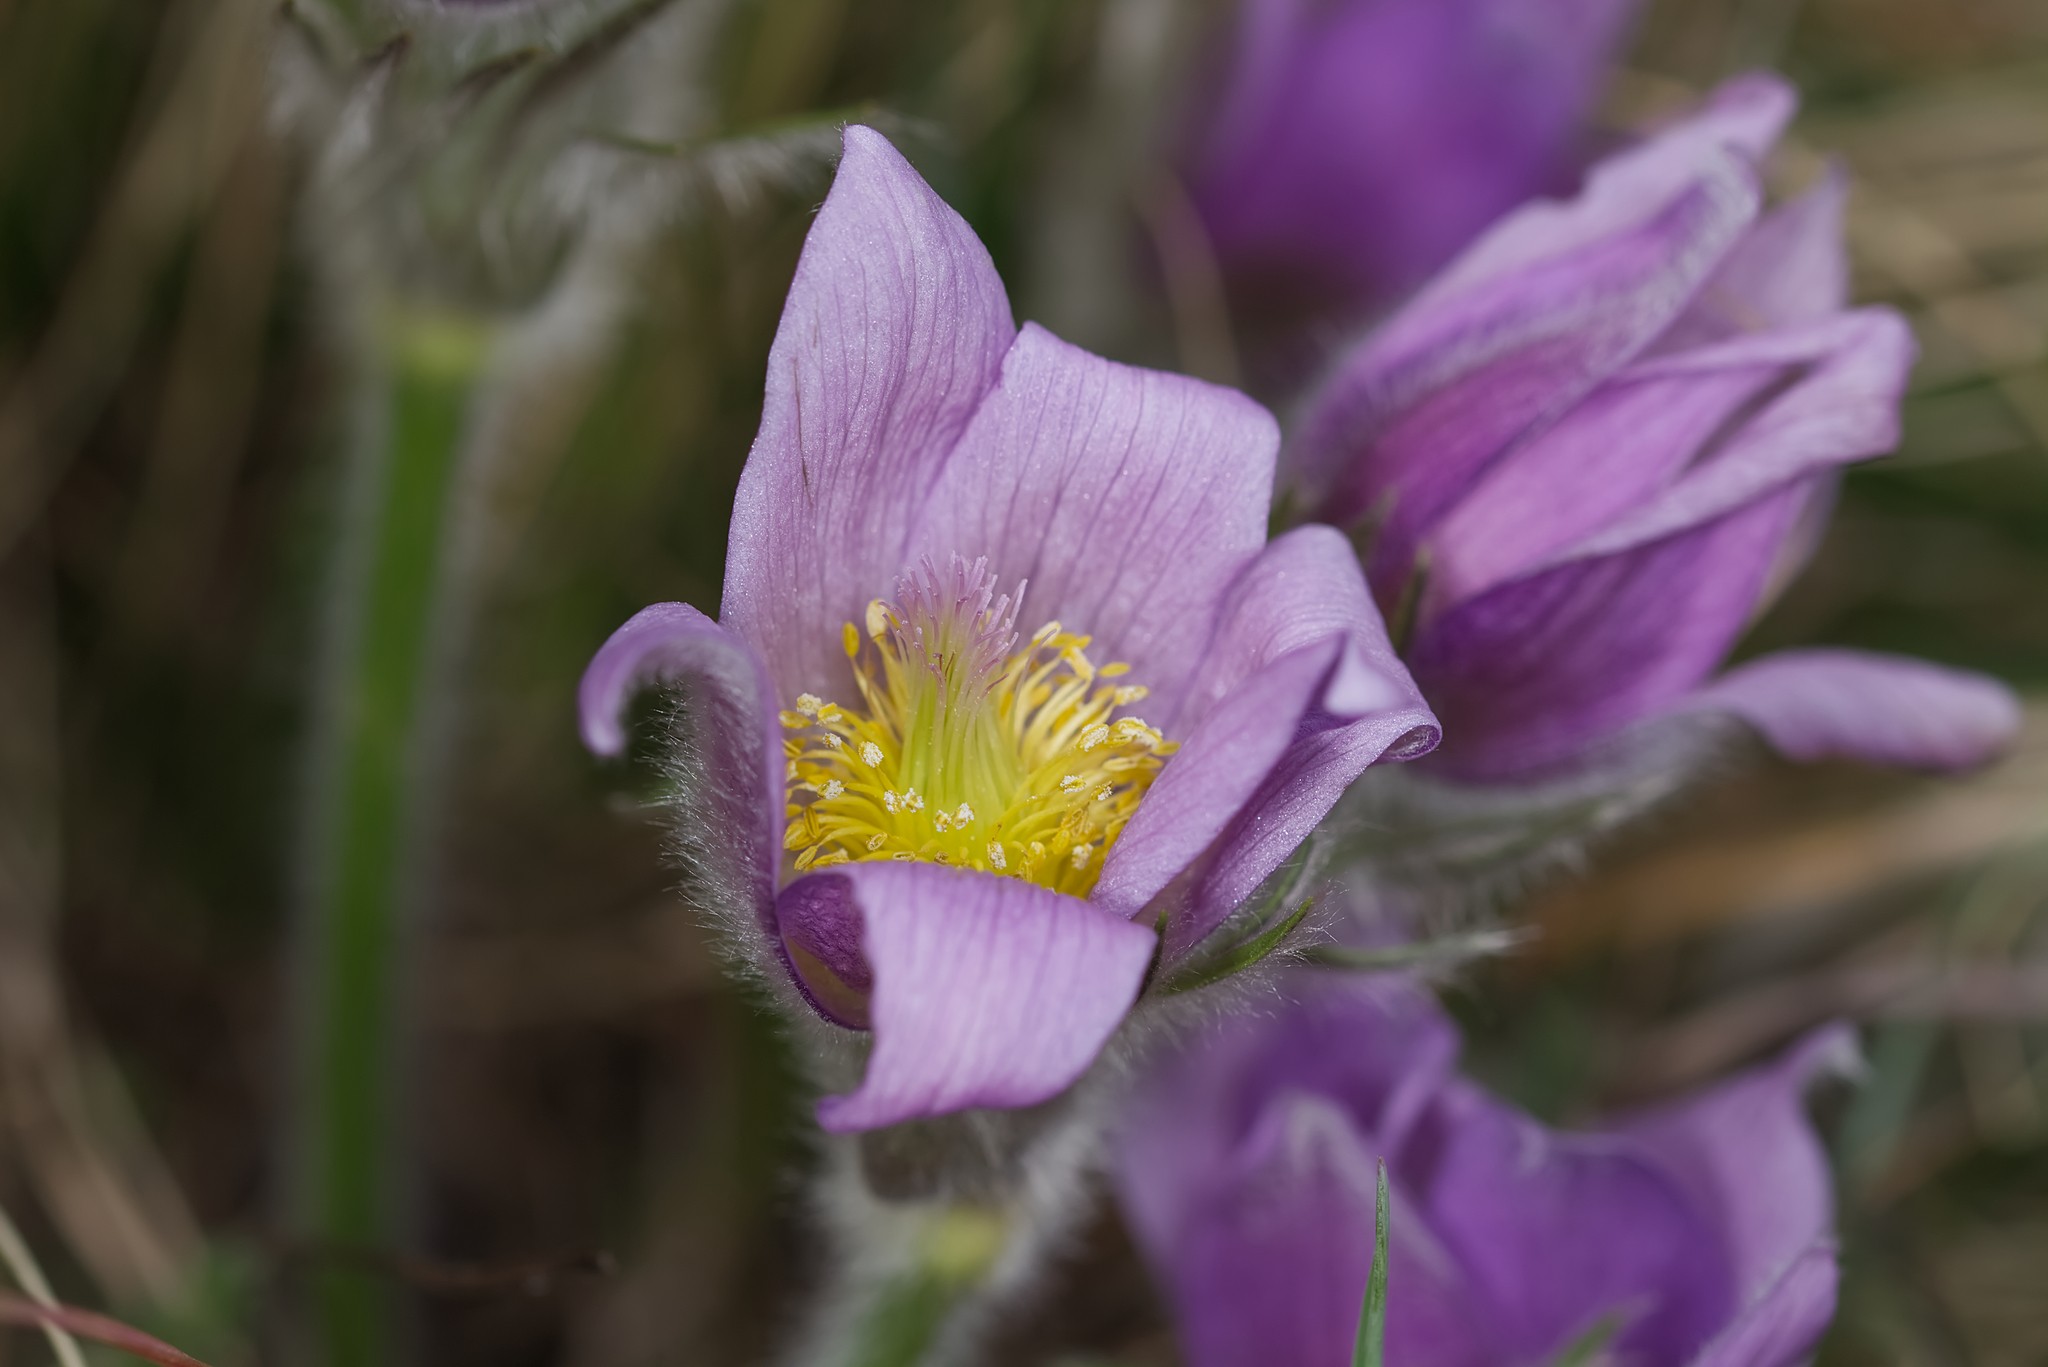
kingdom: Plantae
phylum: Tracheophyta
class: Magnoliopsida
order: Ranunculales
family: Ranunculaceae
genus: Pulsatilla
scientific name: Pulsatilla grandis
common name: Greater pasque flower
